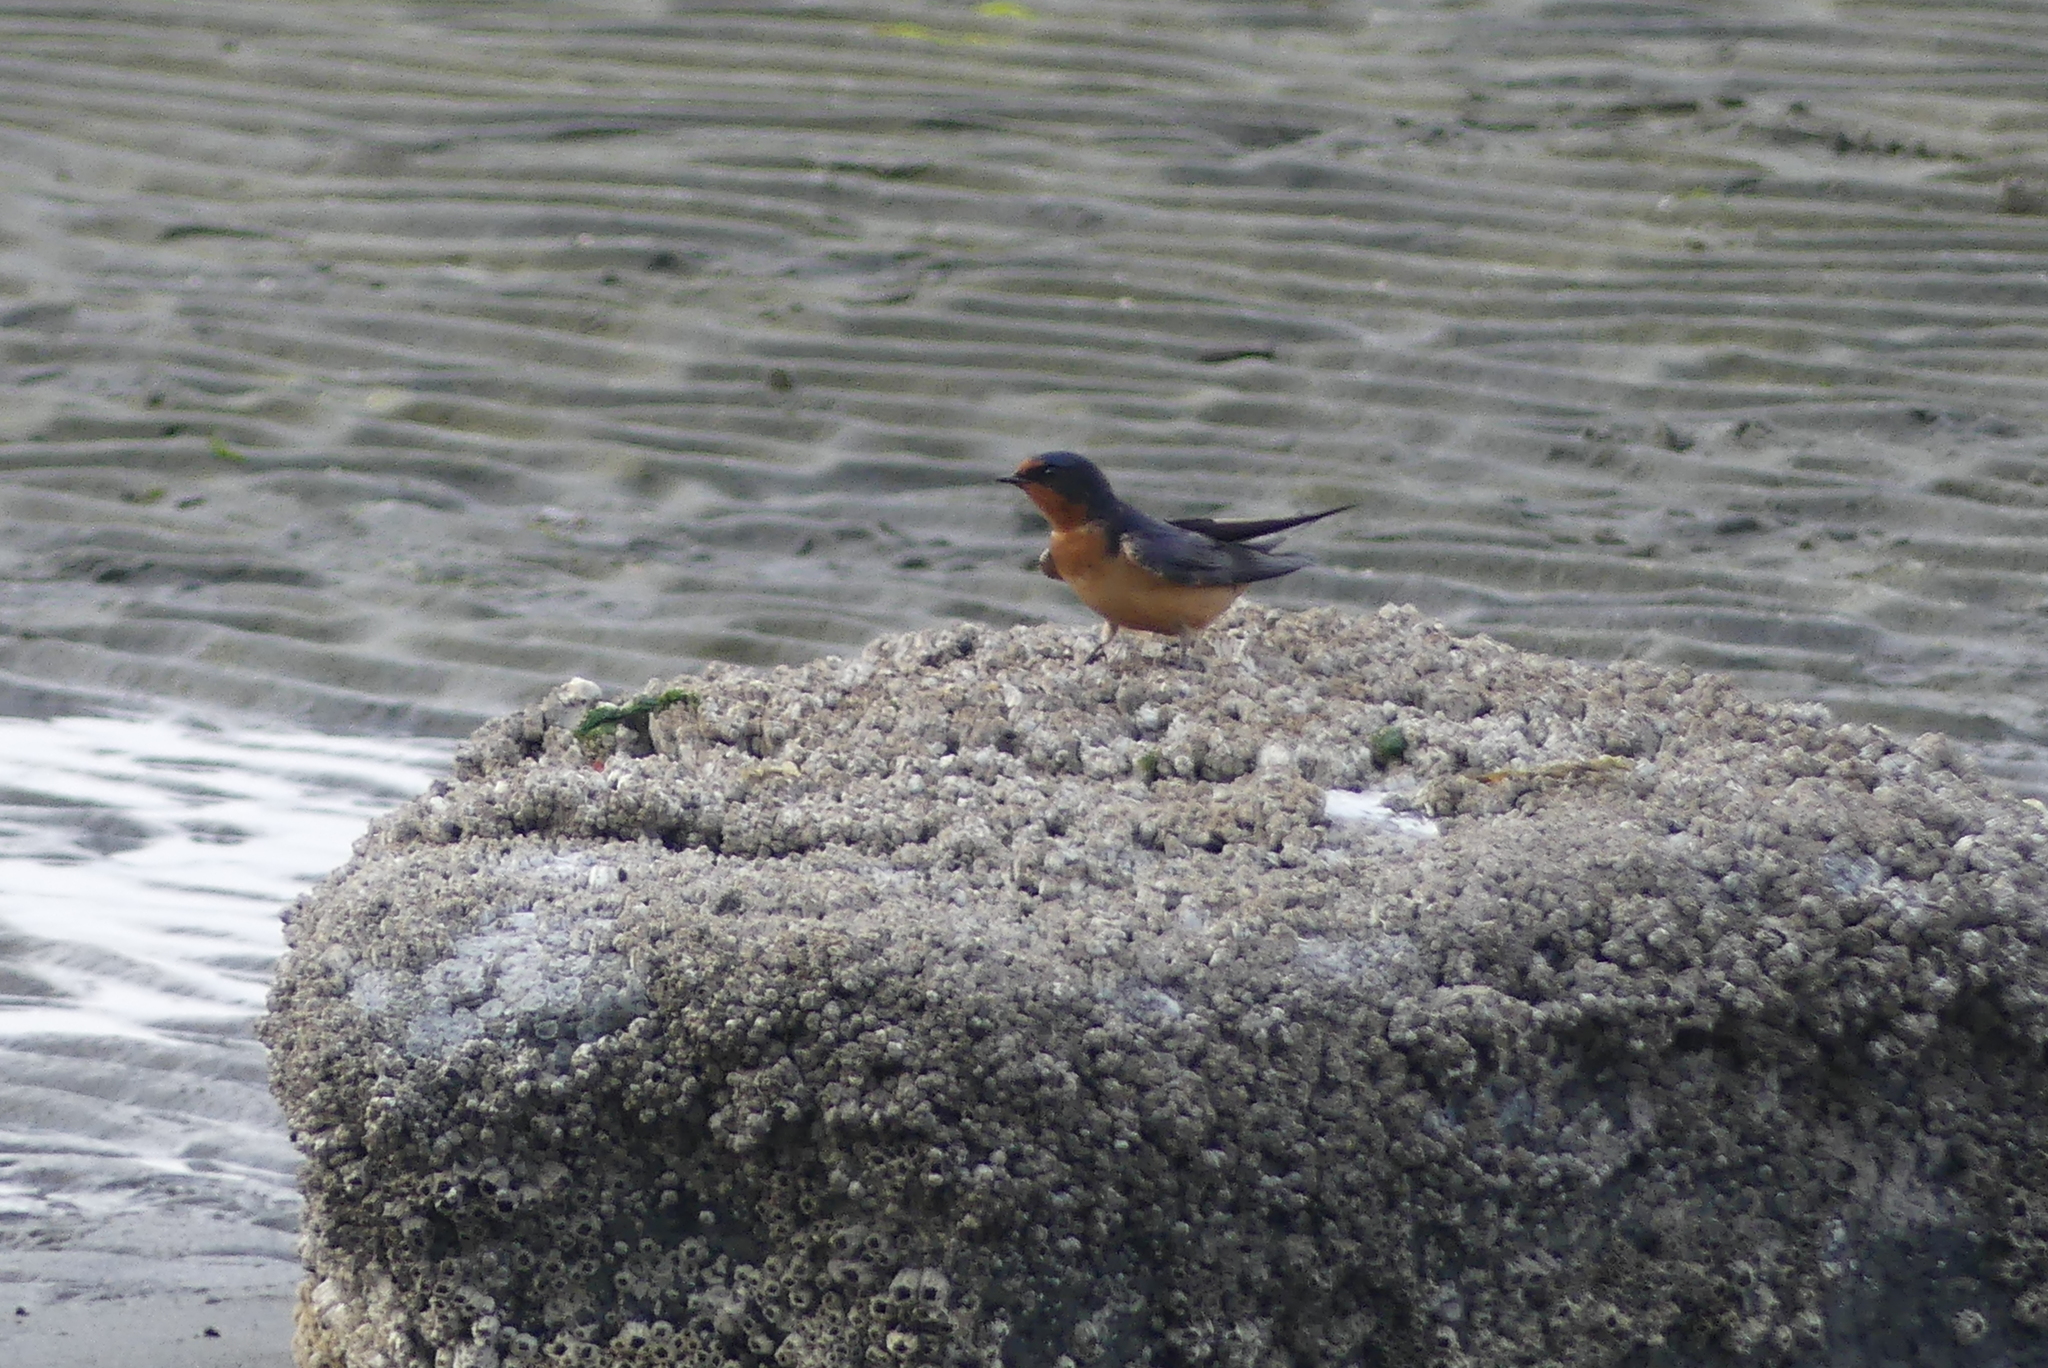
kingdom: Animalia
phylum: Chordata
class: Aves
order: Passeriformes
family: Hirundinidae
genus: Hirundo
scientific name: Hirundo rustica
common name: Barn swallow
